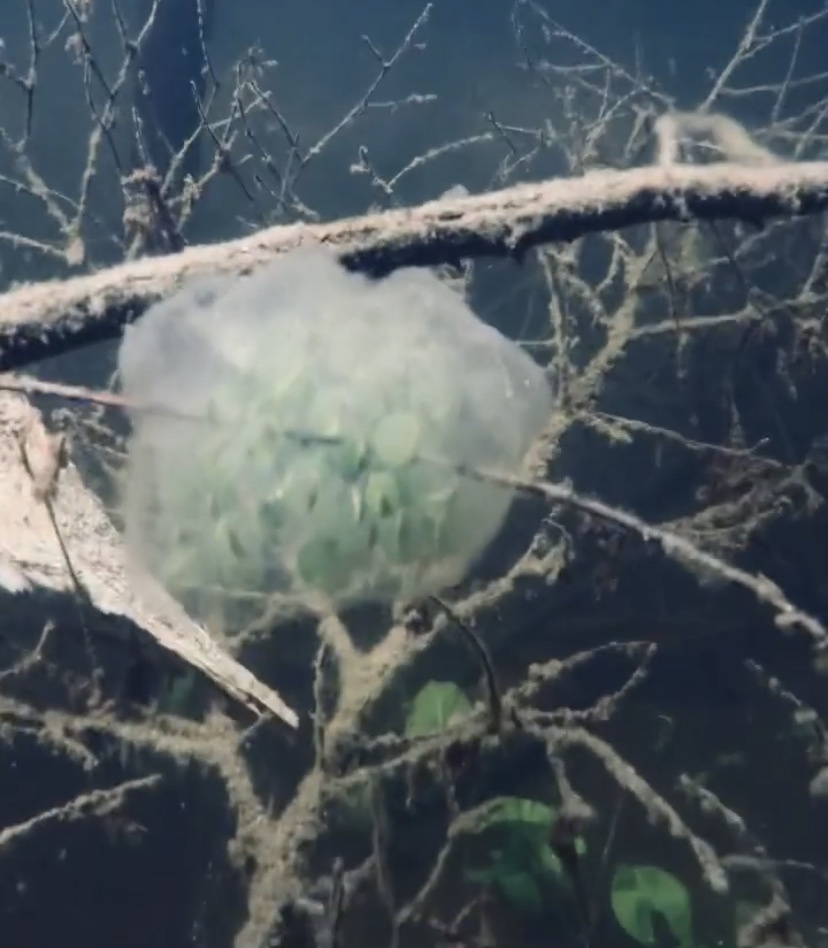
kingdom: Animalia
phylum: Chordata
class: Amphibia
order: Caudata
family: Ambystomatidae
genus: Ambystoma
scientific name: Ambystoma gracile
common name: Northwestern salamander
